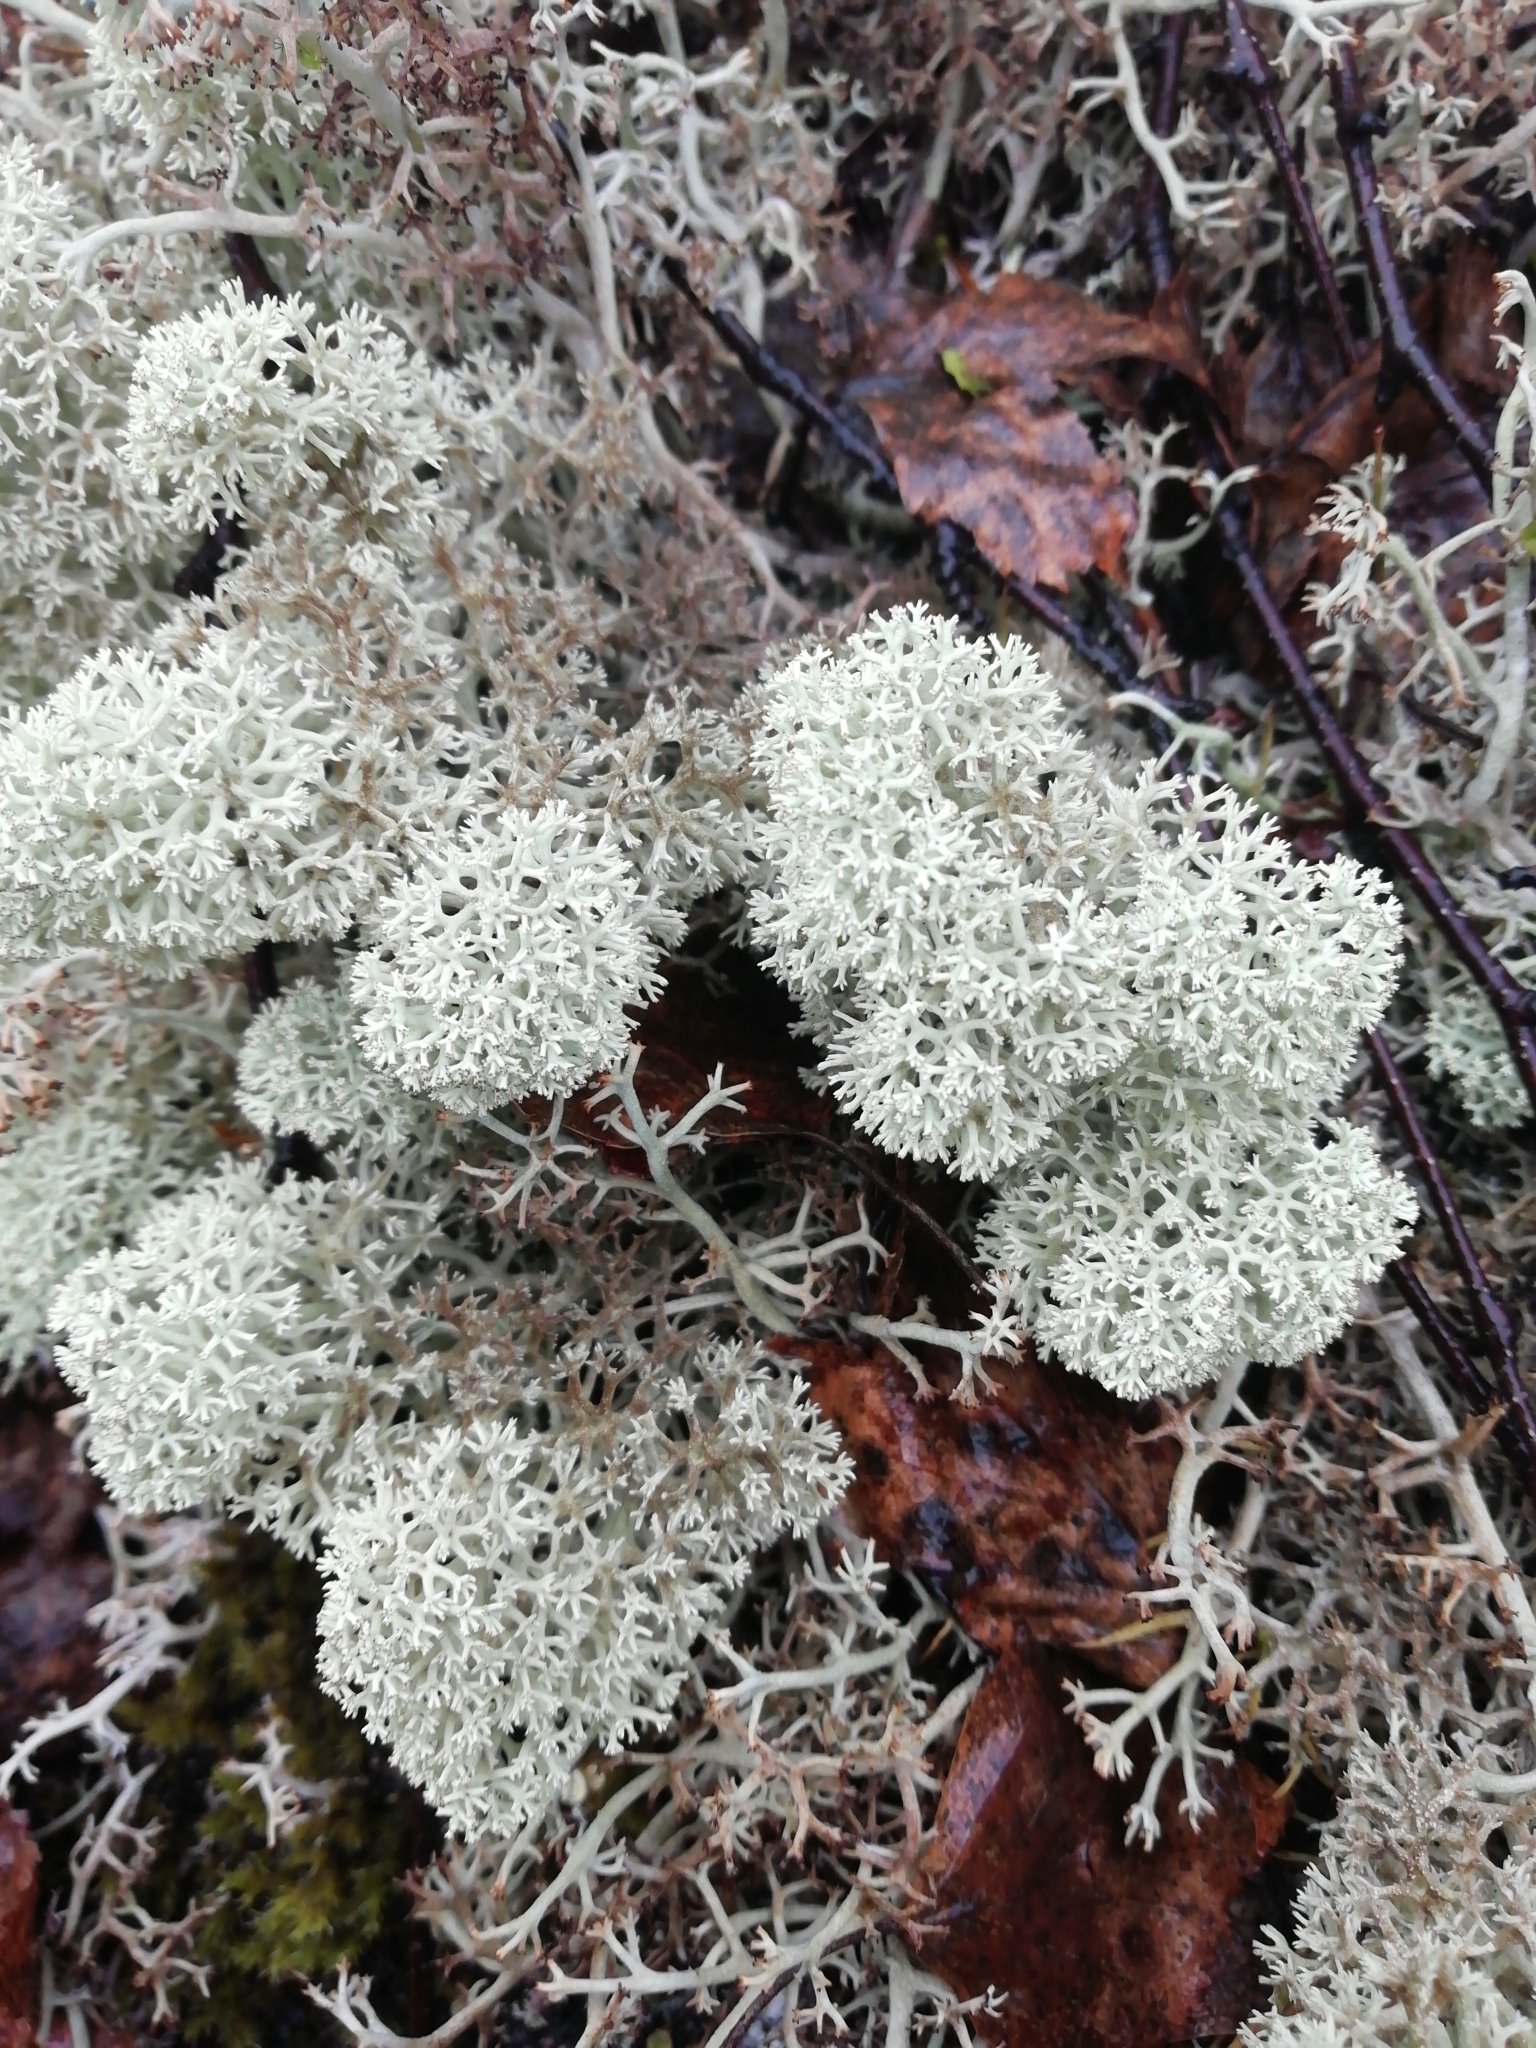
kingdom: Fungi
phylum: Ascomycota
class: Lecanoromycetes
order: Lecanorales
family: Cladoniaceae
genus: Cladonia
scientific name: Cladonia stellaris
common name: Star-tipped reindeer lichen
